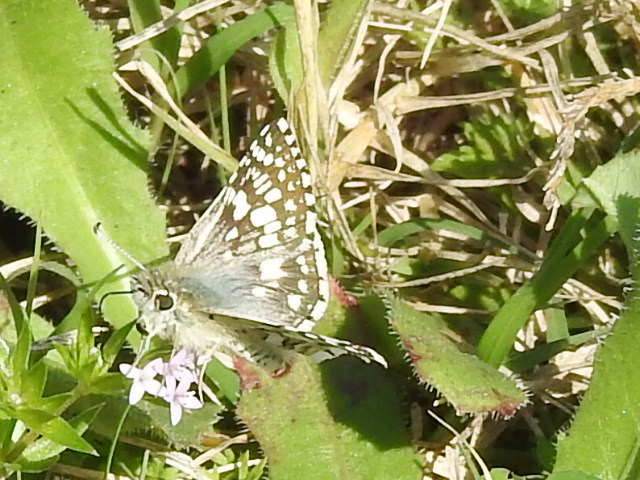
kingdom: Animalia
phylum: Arthropoda
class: Insecta
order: Lepidoptera
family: Hesperiidae
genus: Burnsius
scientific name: Burnsius
